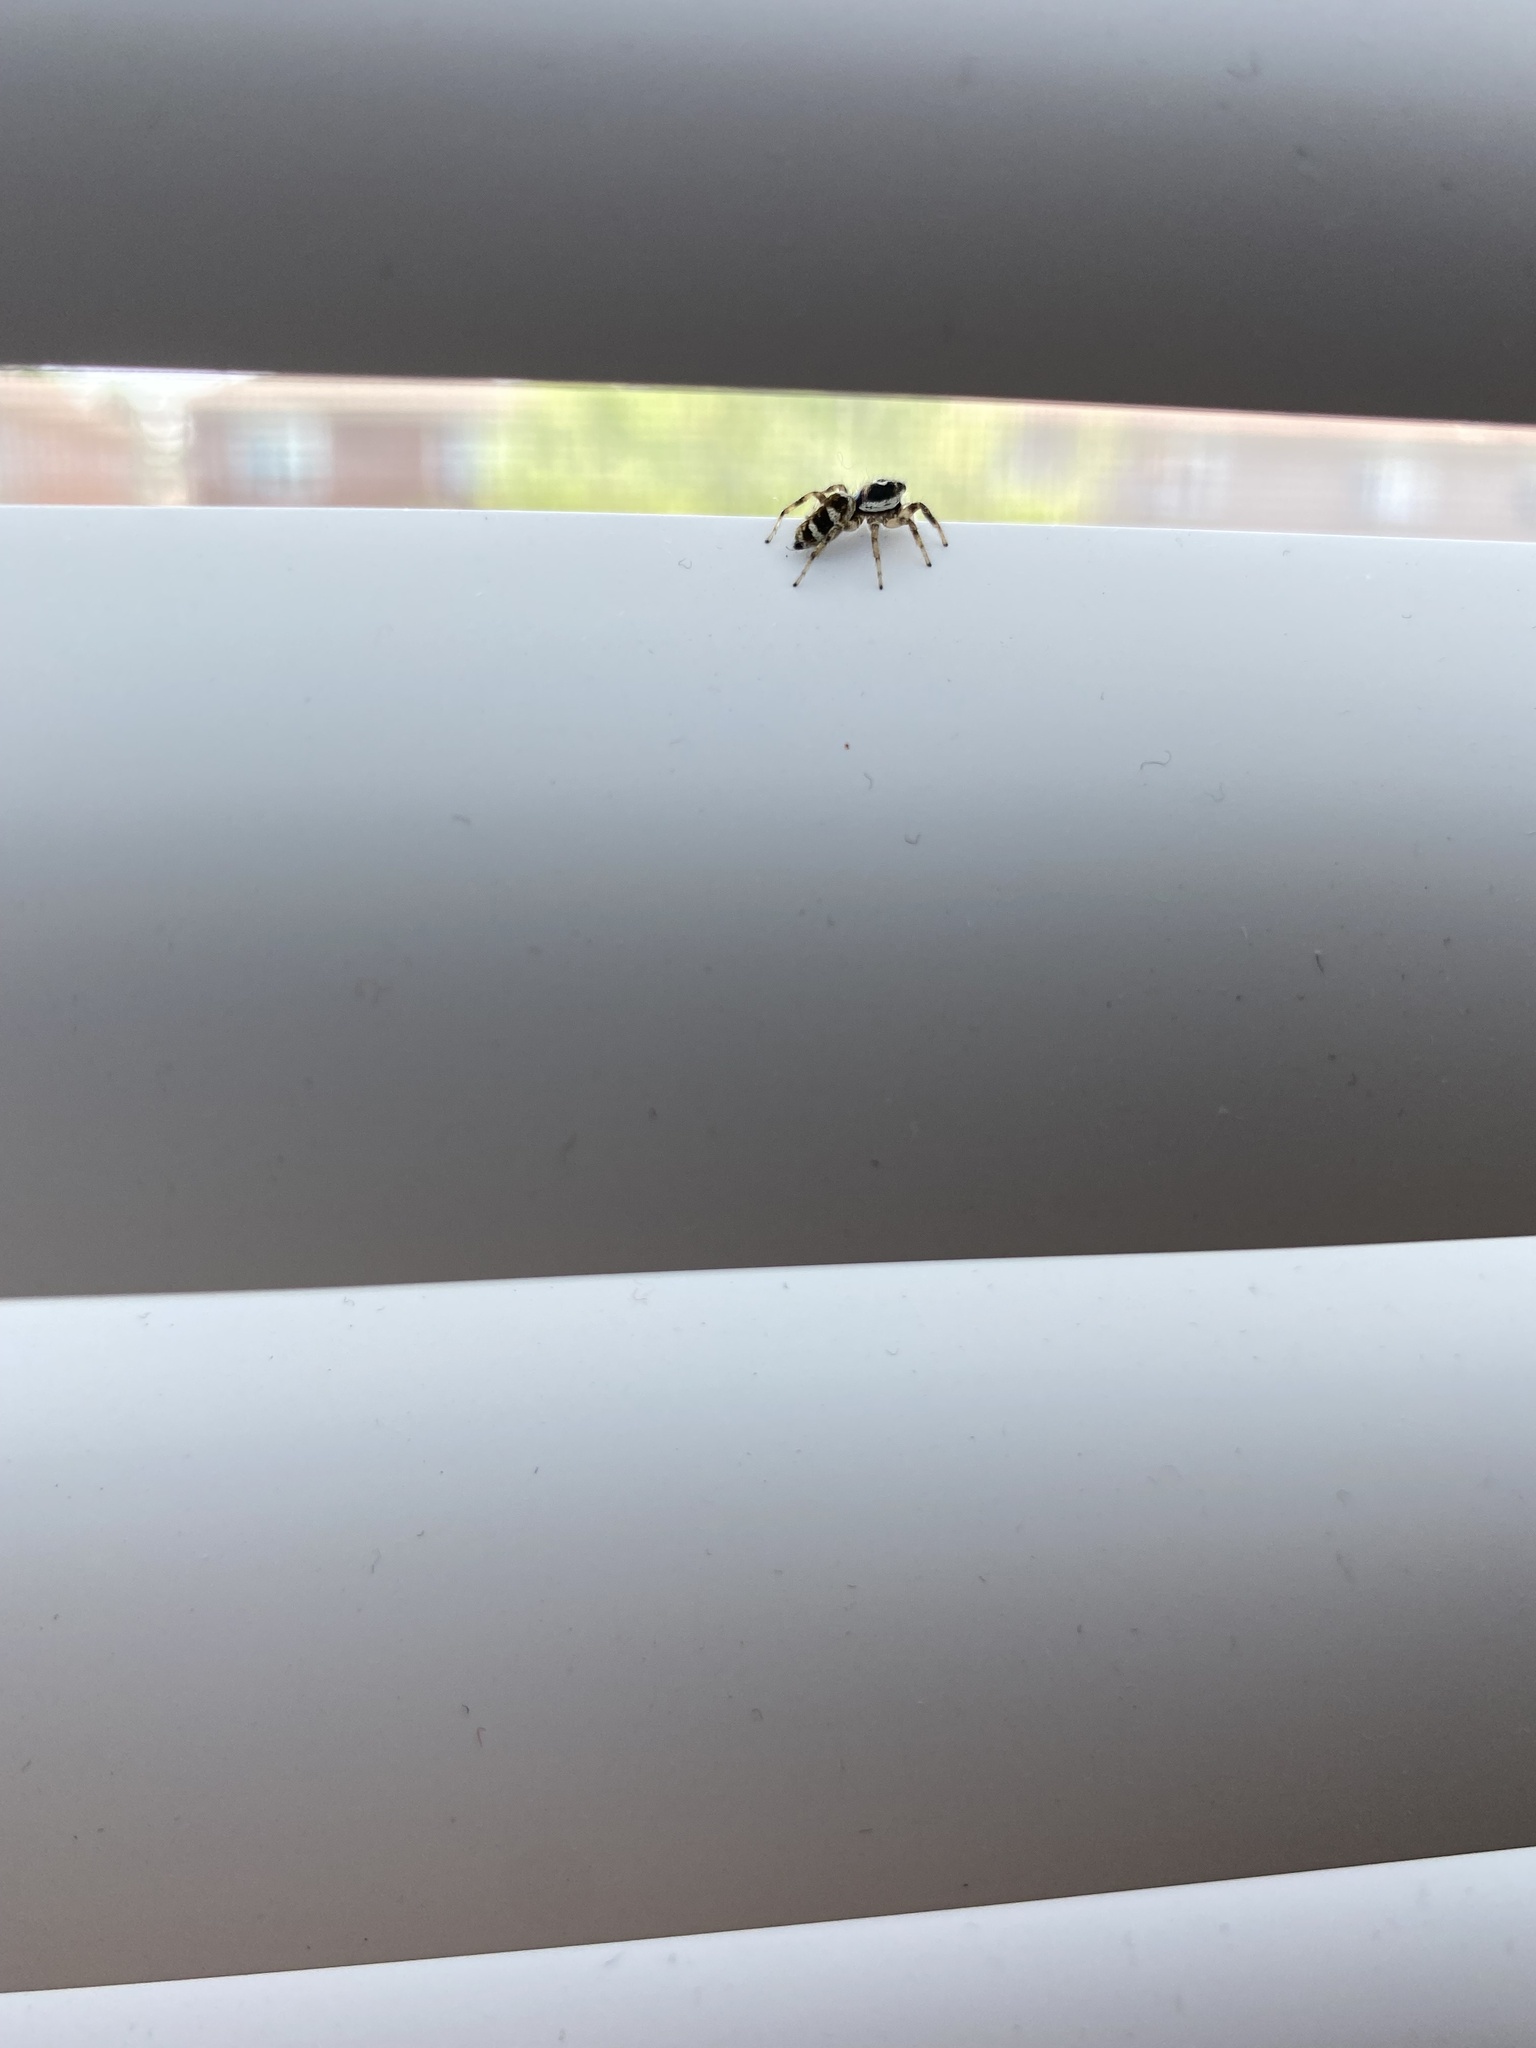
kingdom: Animalia
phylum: Arthropoda
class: Arachnida
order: Araneae
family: Salticidae
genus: Salticus
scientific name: Salticus scenicus
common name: Zebra jumper
